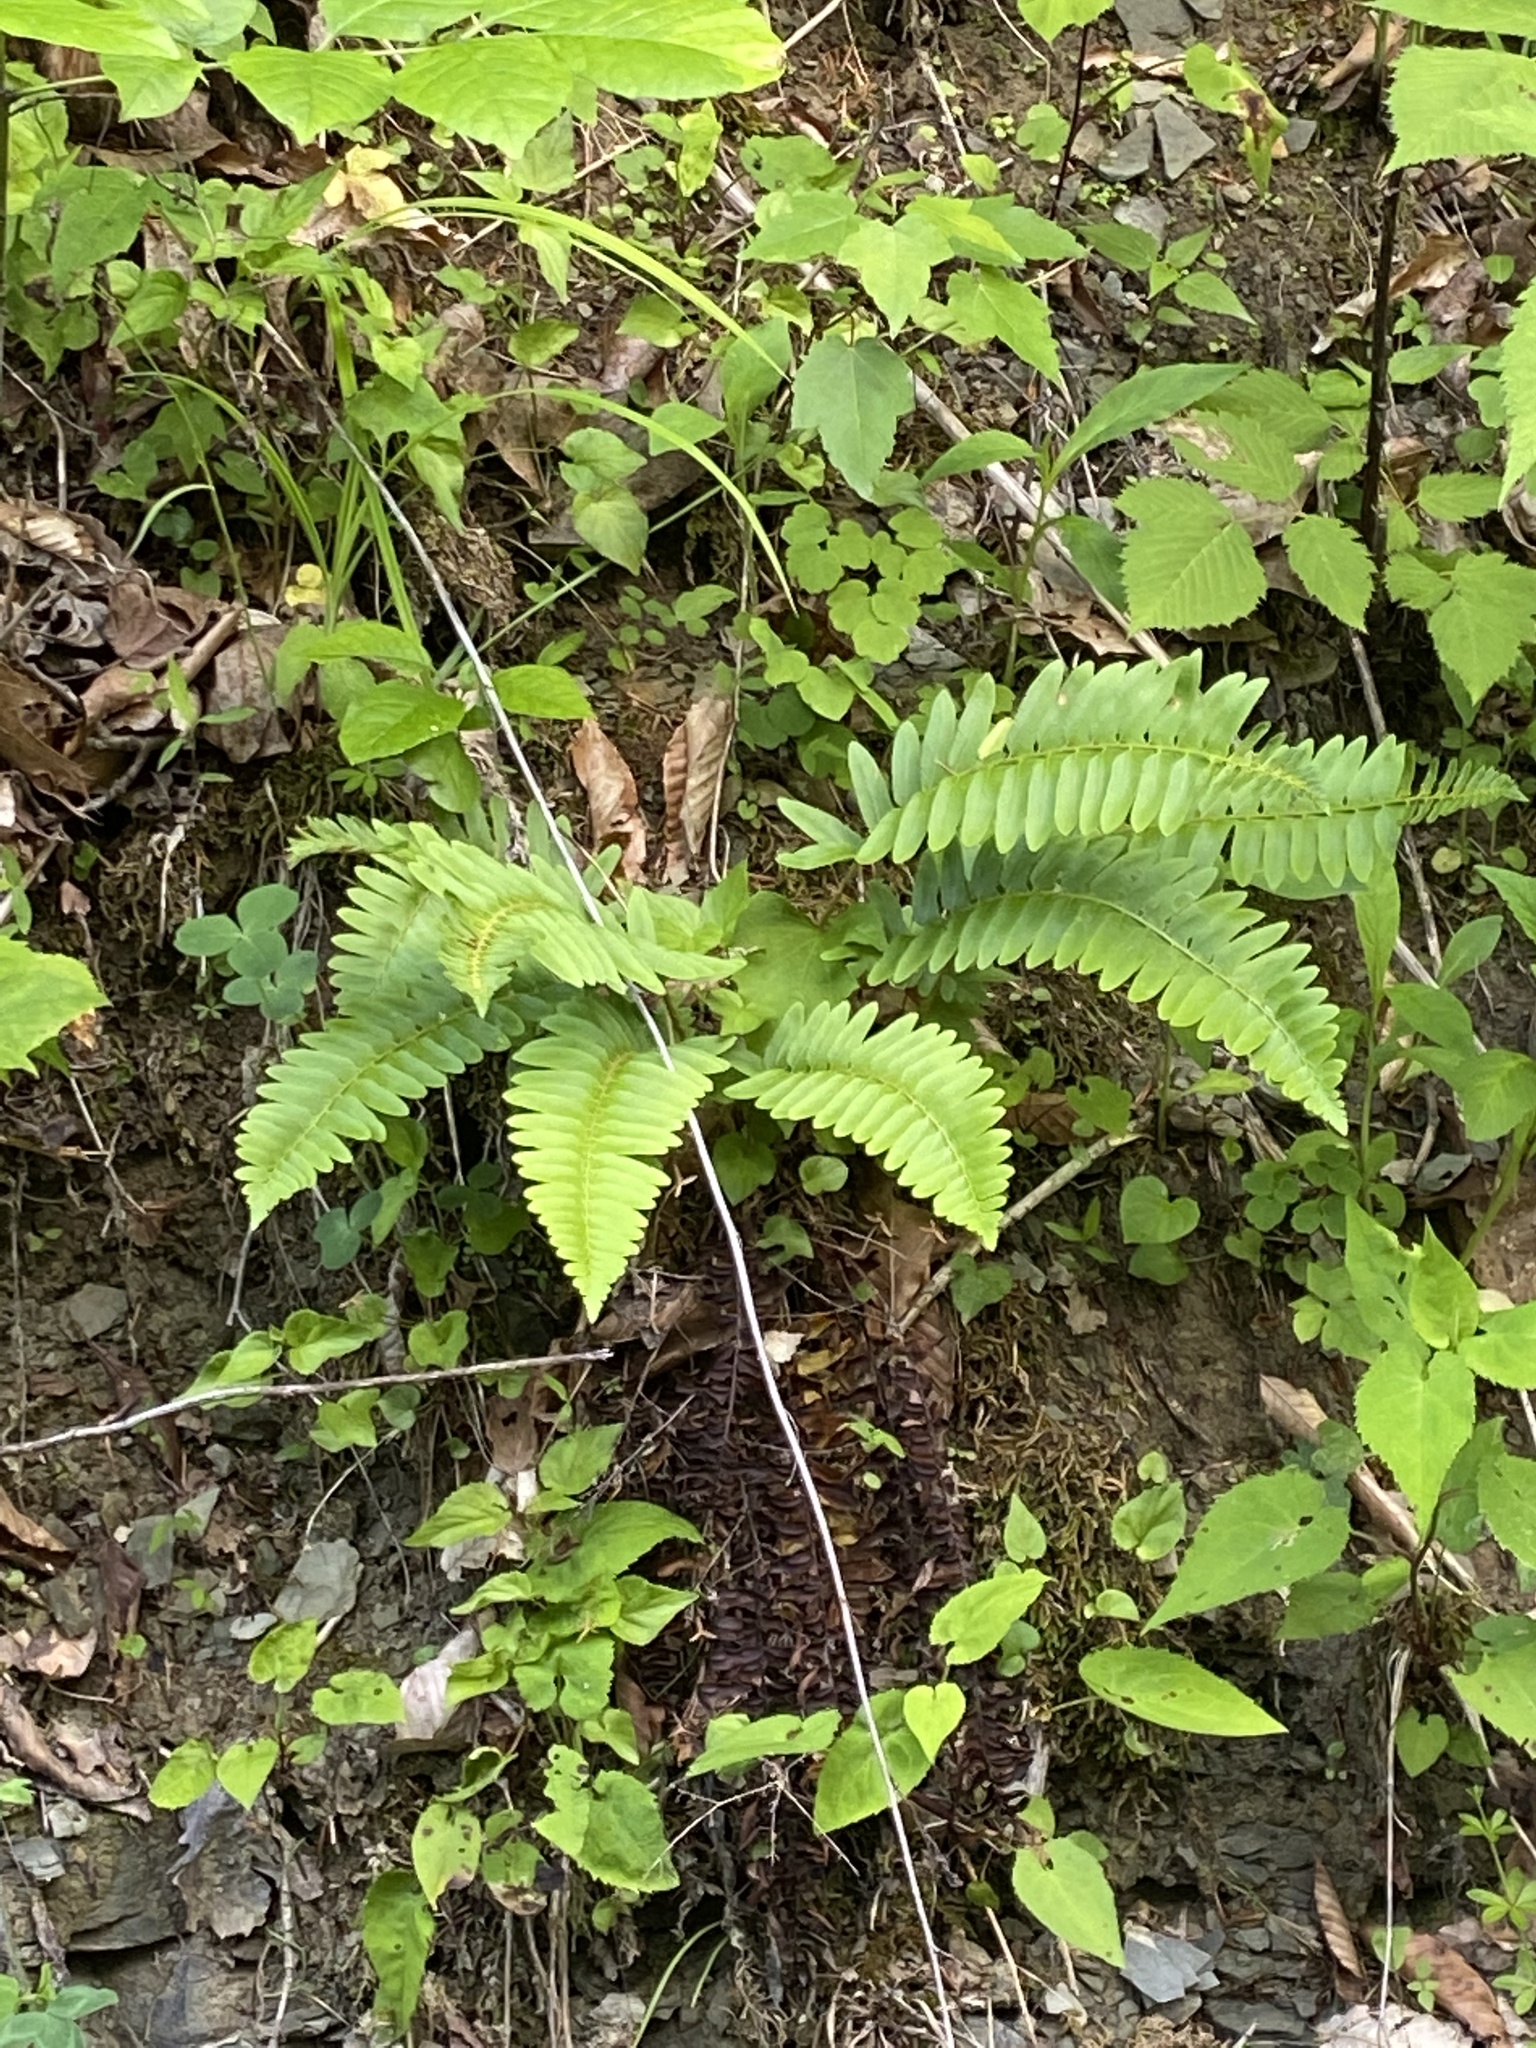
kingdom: Plantae
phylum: Tracheophyta
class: Polypodiopsida
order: Polypodiales
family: Dryopteridaceae
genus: Polystichum
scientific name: Polystichum acrostichoides
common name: Christmas fern
